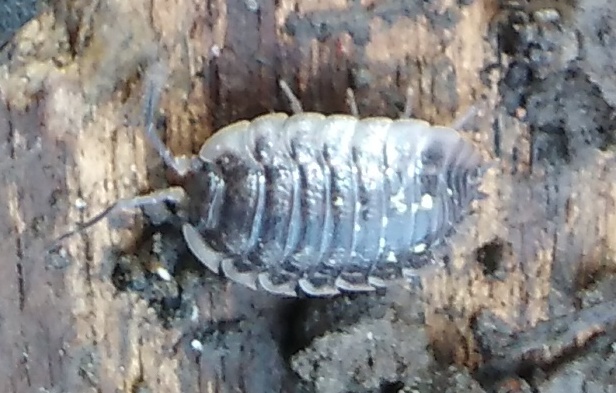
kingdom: Animalia
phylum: Arthropoda
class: Malacostraca
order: Isopoda
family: Oniscidae
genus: Oniscus
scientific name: Oniscus asellus
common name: Common shiny woodlouse
